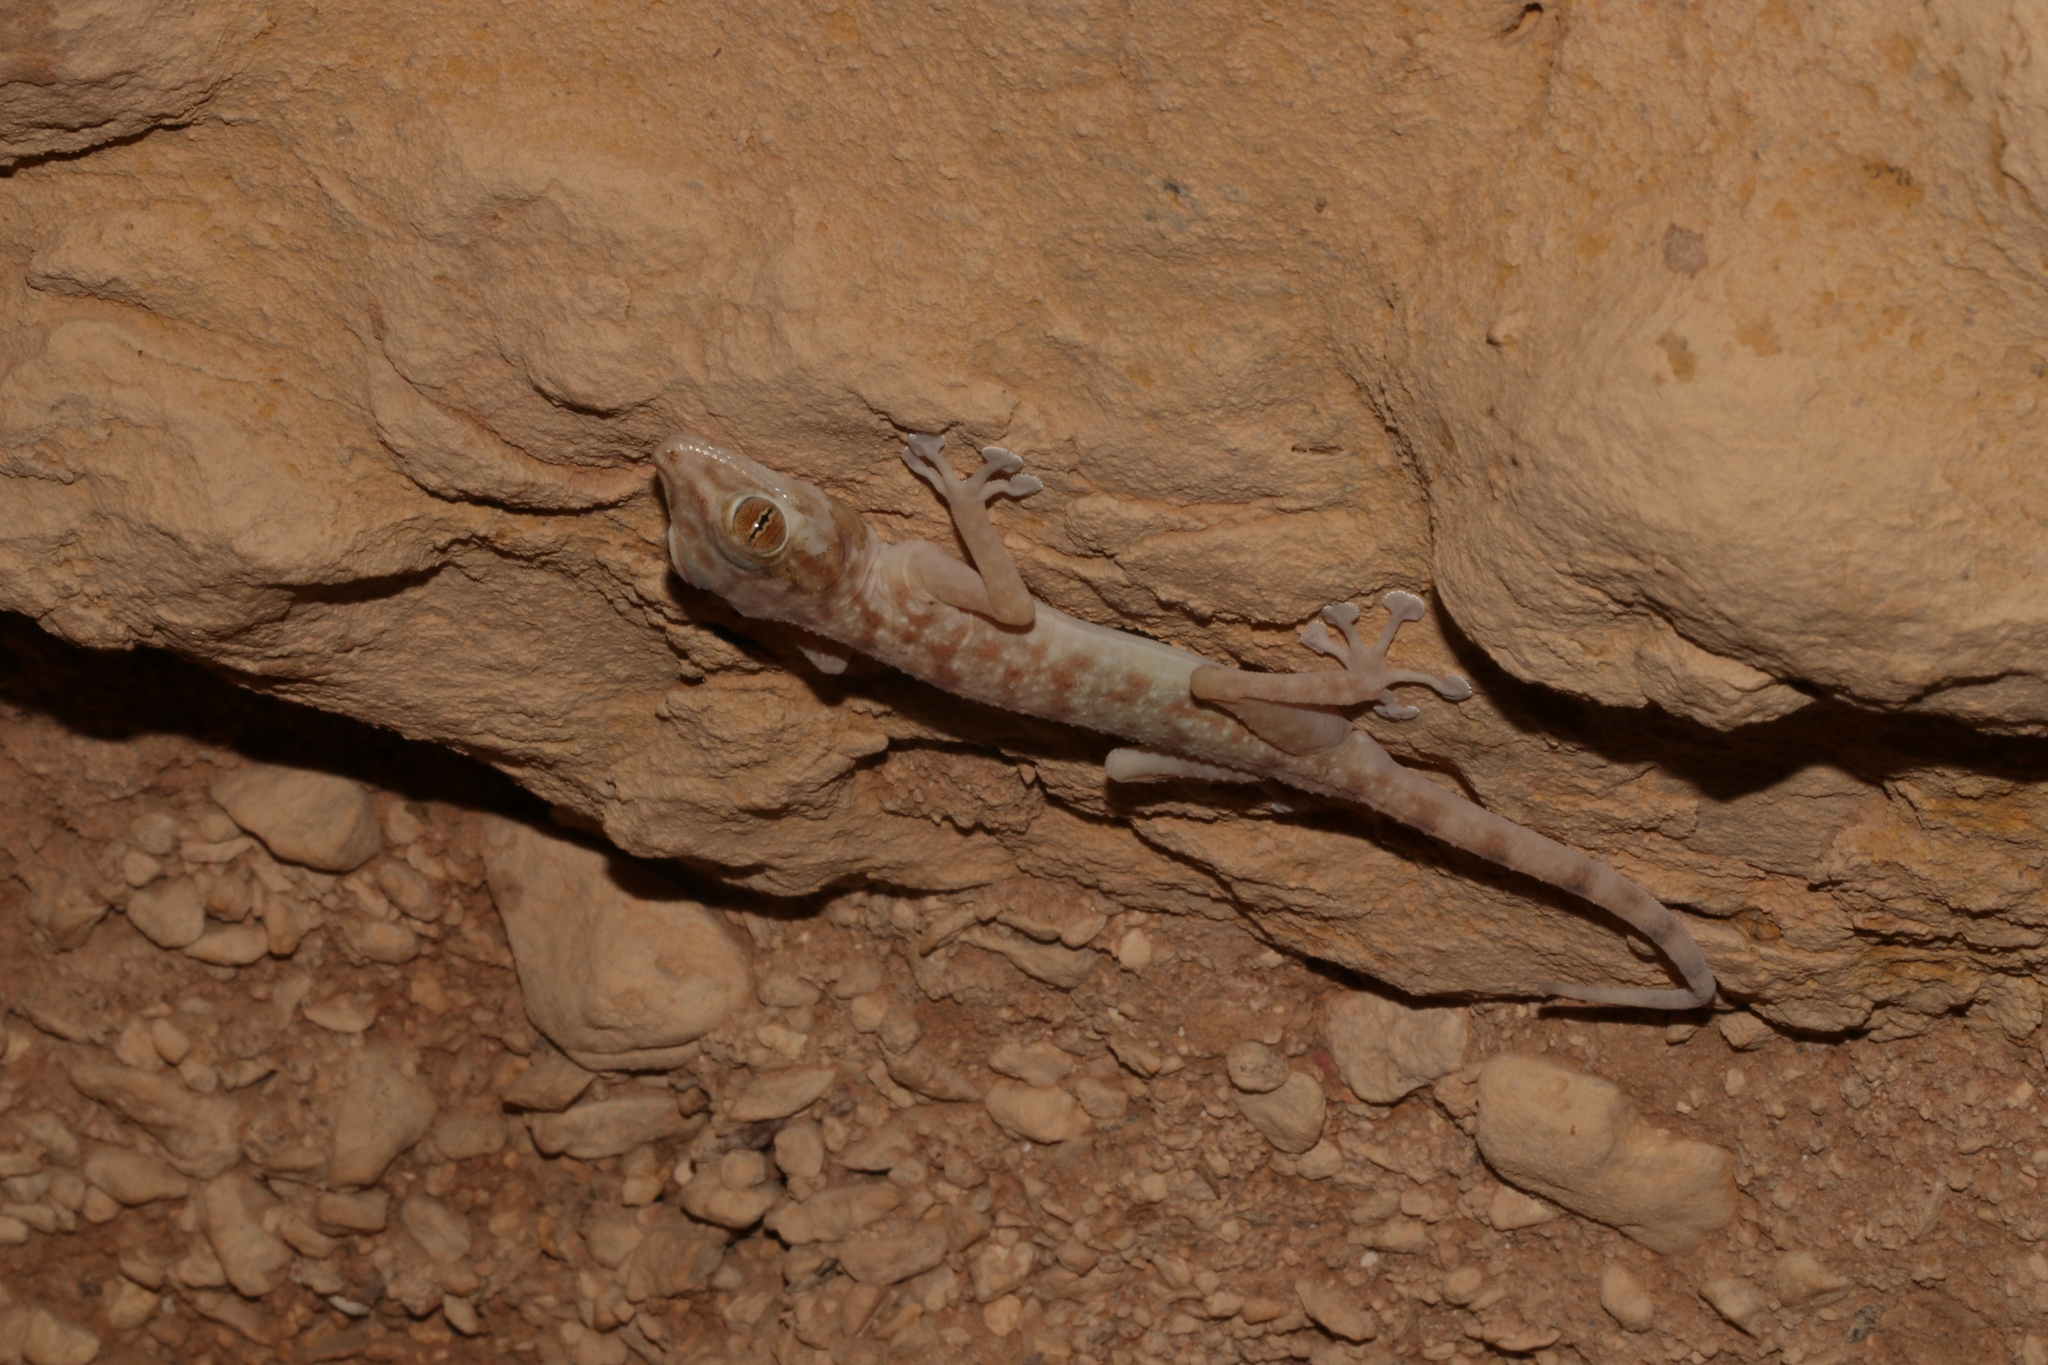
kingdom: Animalia
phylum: Chordata
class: Squamata
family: Phyllodactylidae
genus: Ptyodactylus
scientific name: Ptyodactylus hasselquistii
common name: Hasselquist’s fan-footed gecko
